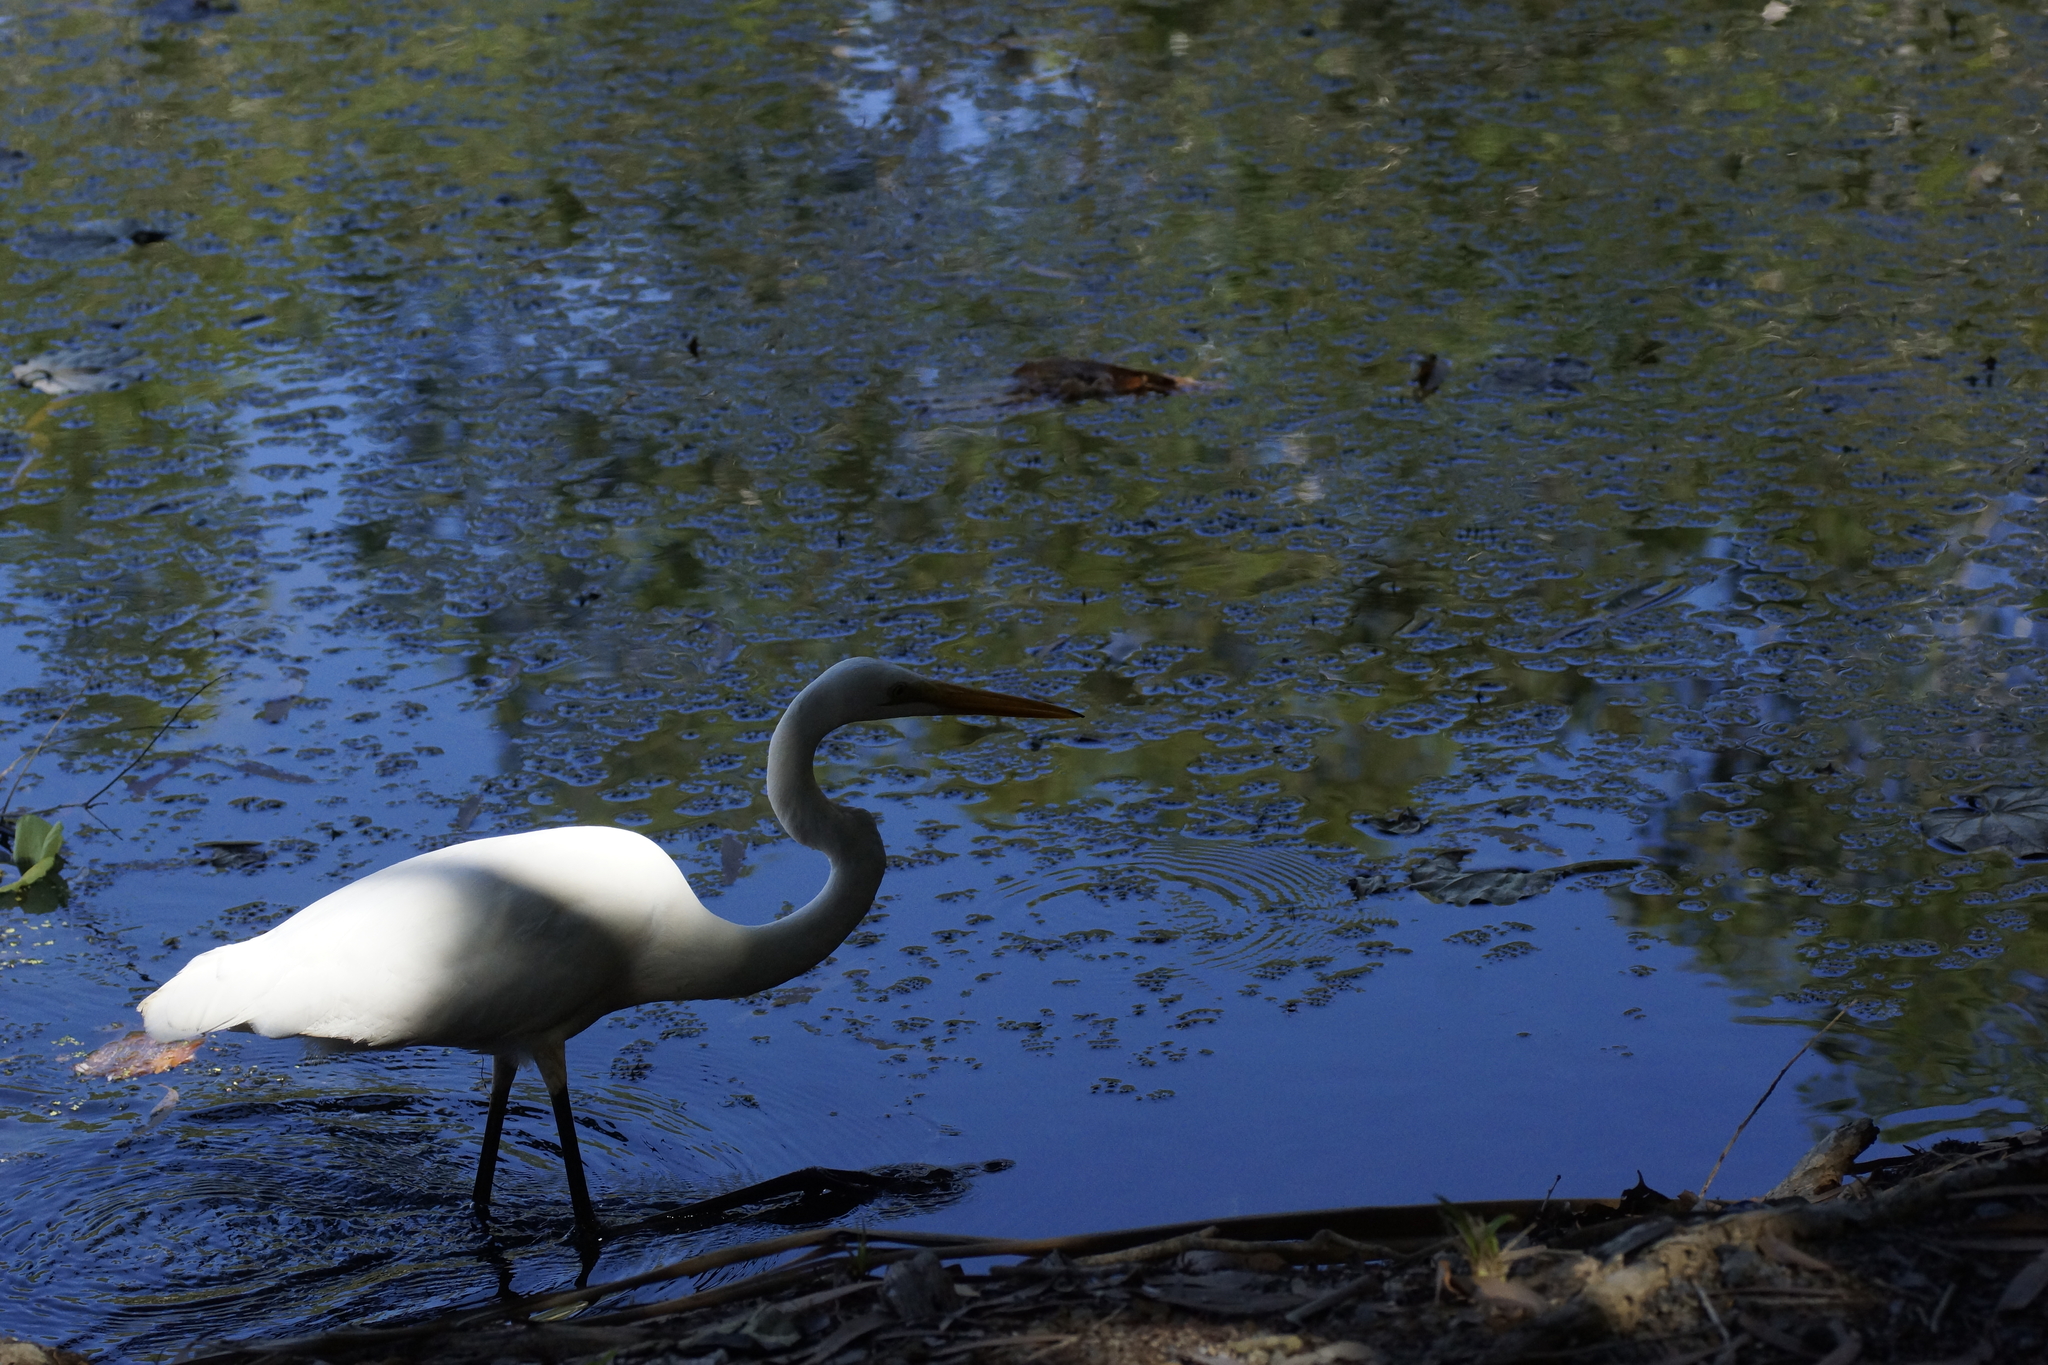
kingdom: Animalia
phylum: Chordata
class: Aves
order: Pelecaniformes
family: Ardeidae
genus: Ardea
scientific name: Ardea alba
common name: Great egret
